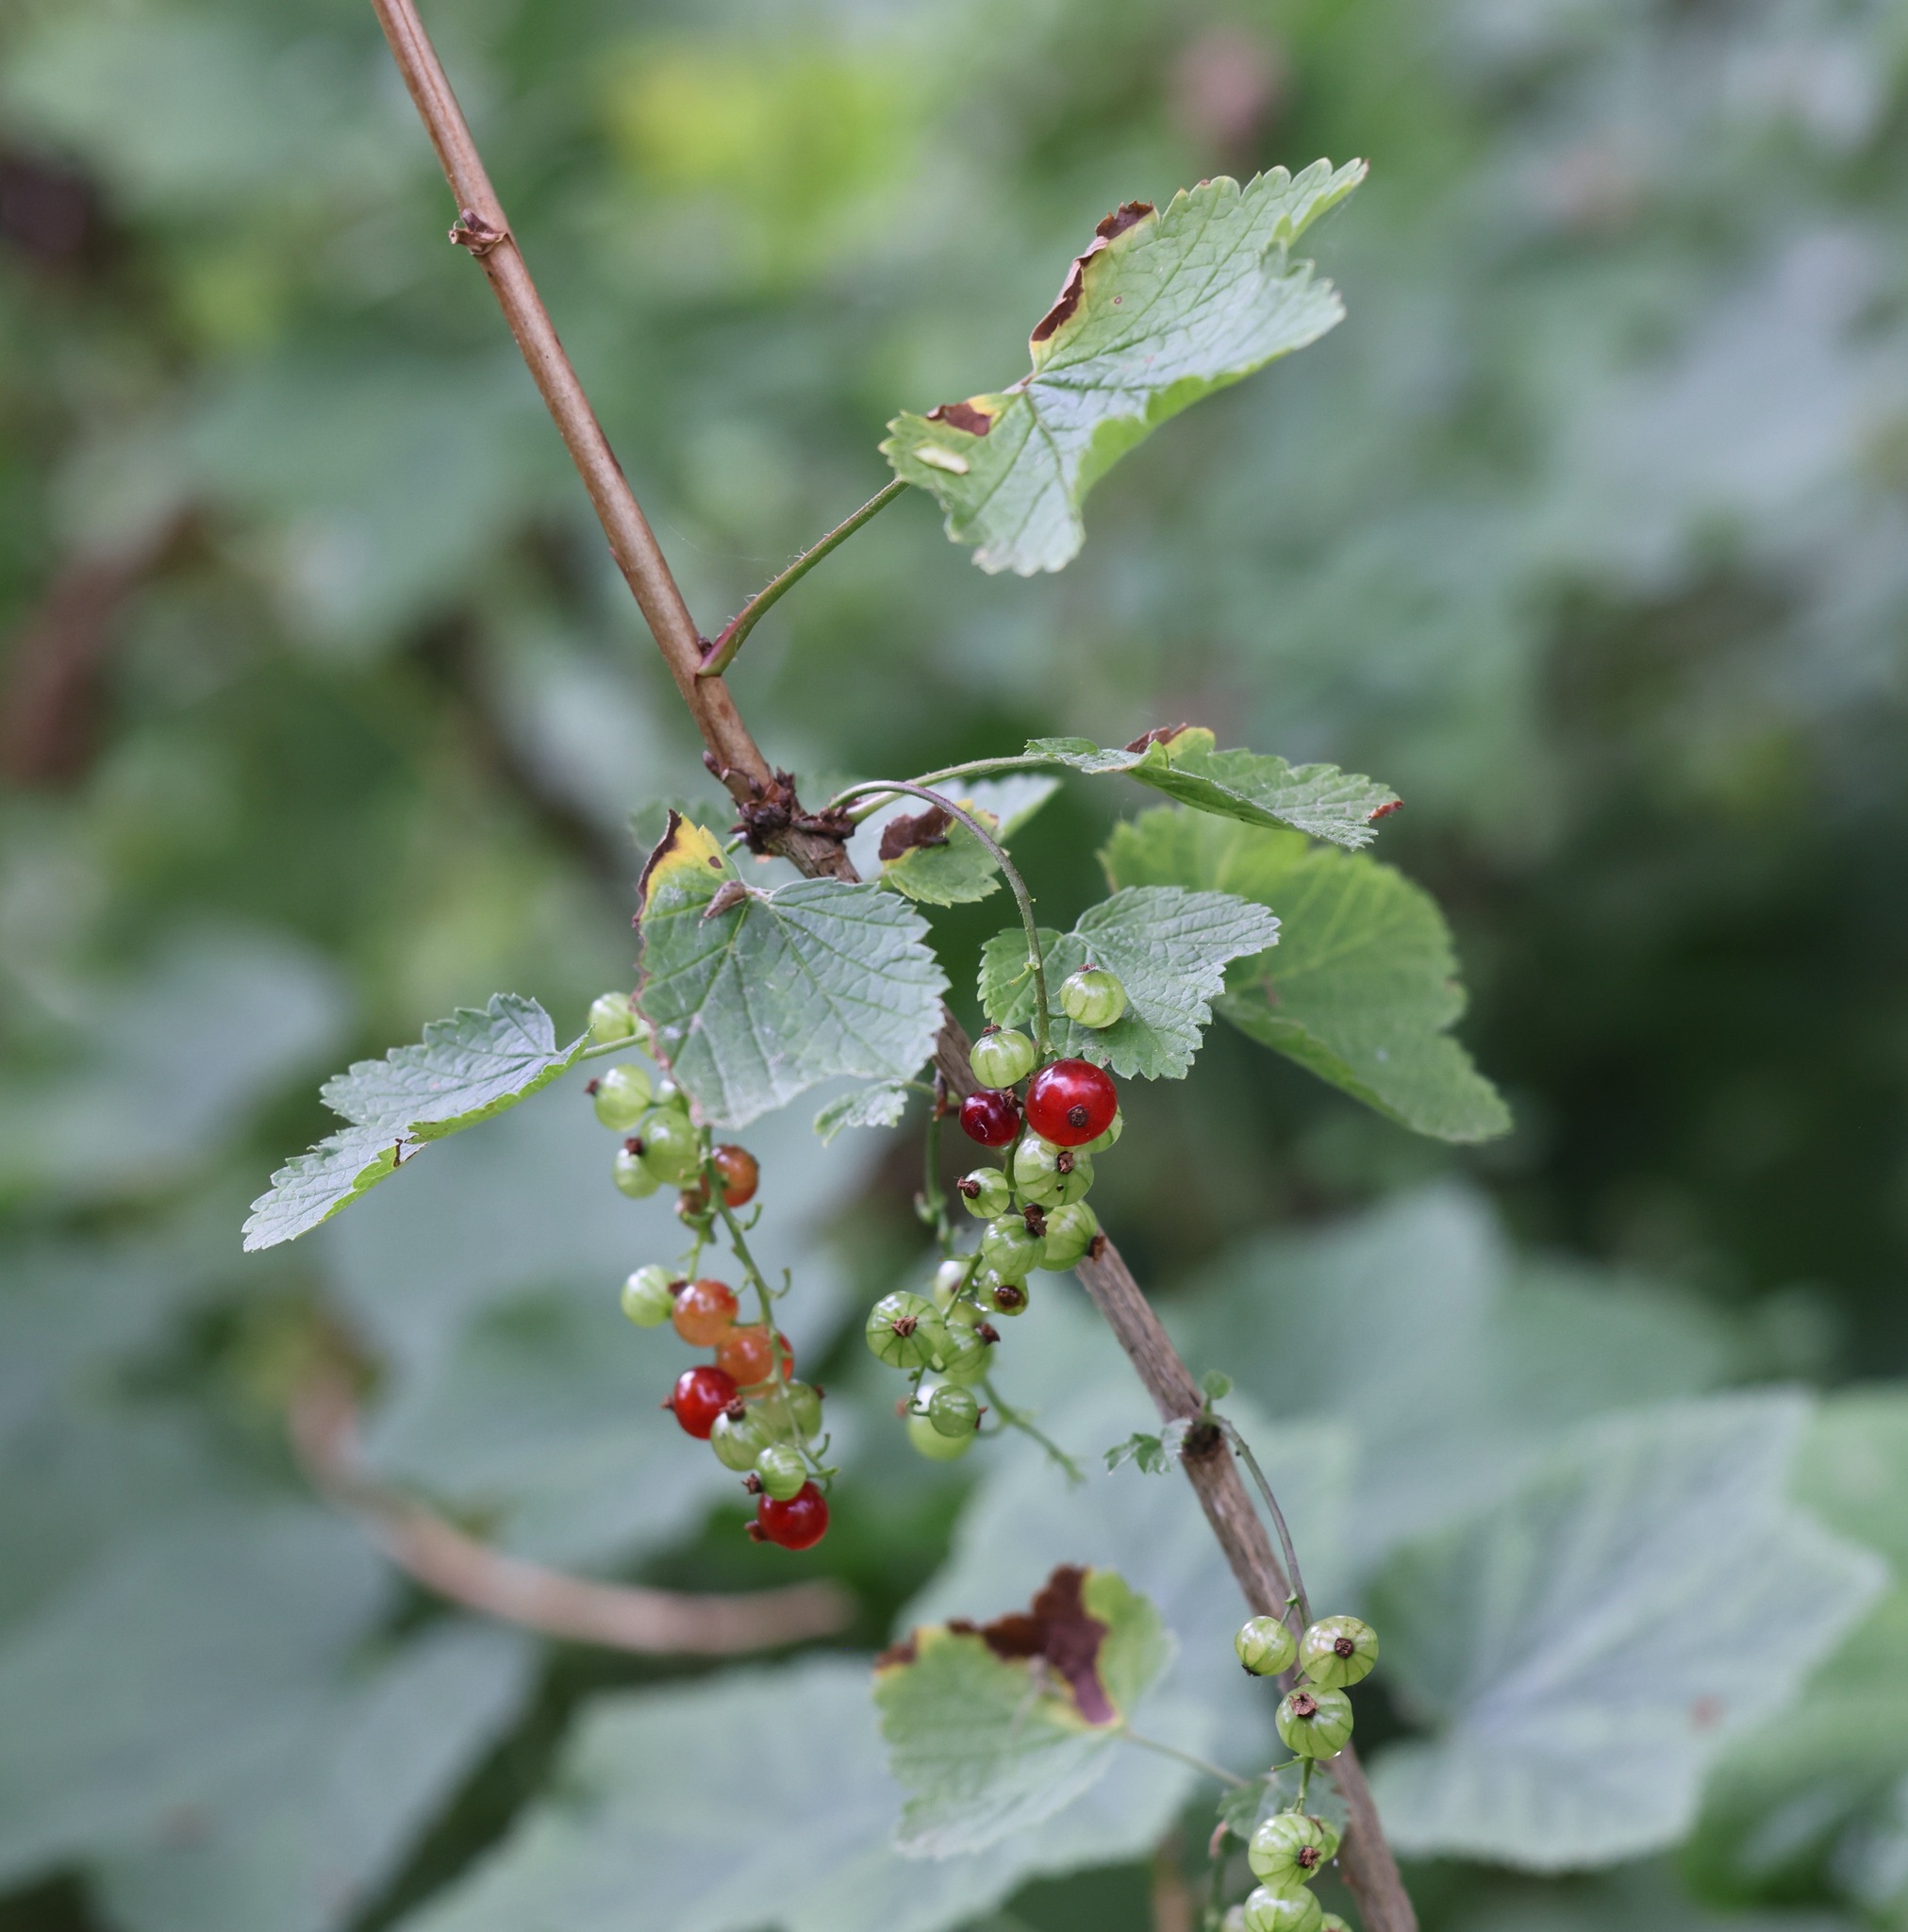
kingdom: Plantae
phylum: Tracheophyta
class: Magnoliopsida
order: Saxifragales
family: Grossulariaceae
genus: Ribes
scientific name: Ribes rubrum
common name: Red currant
